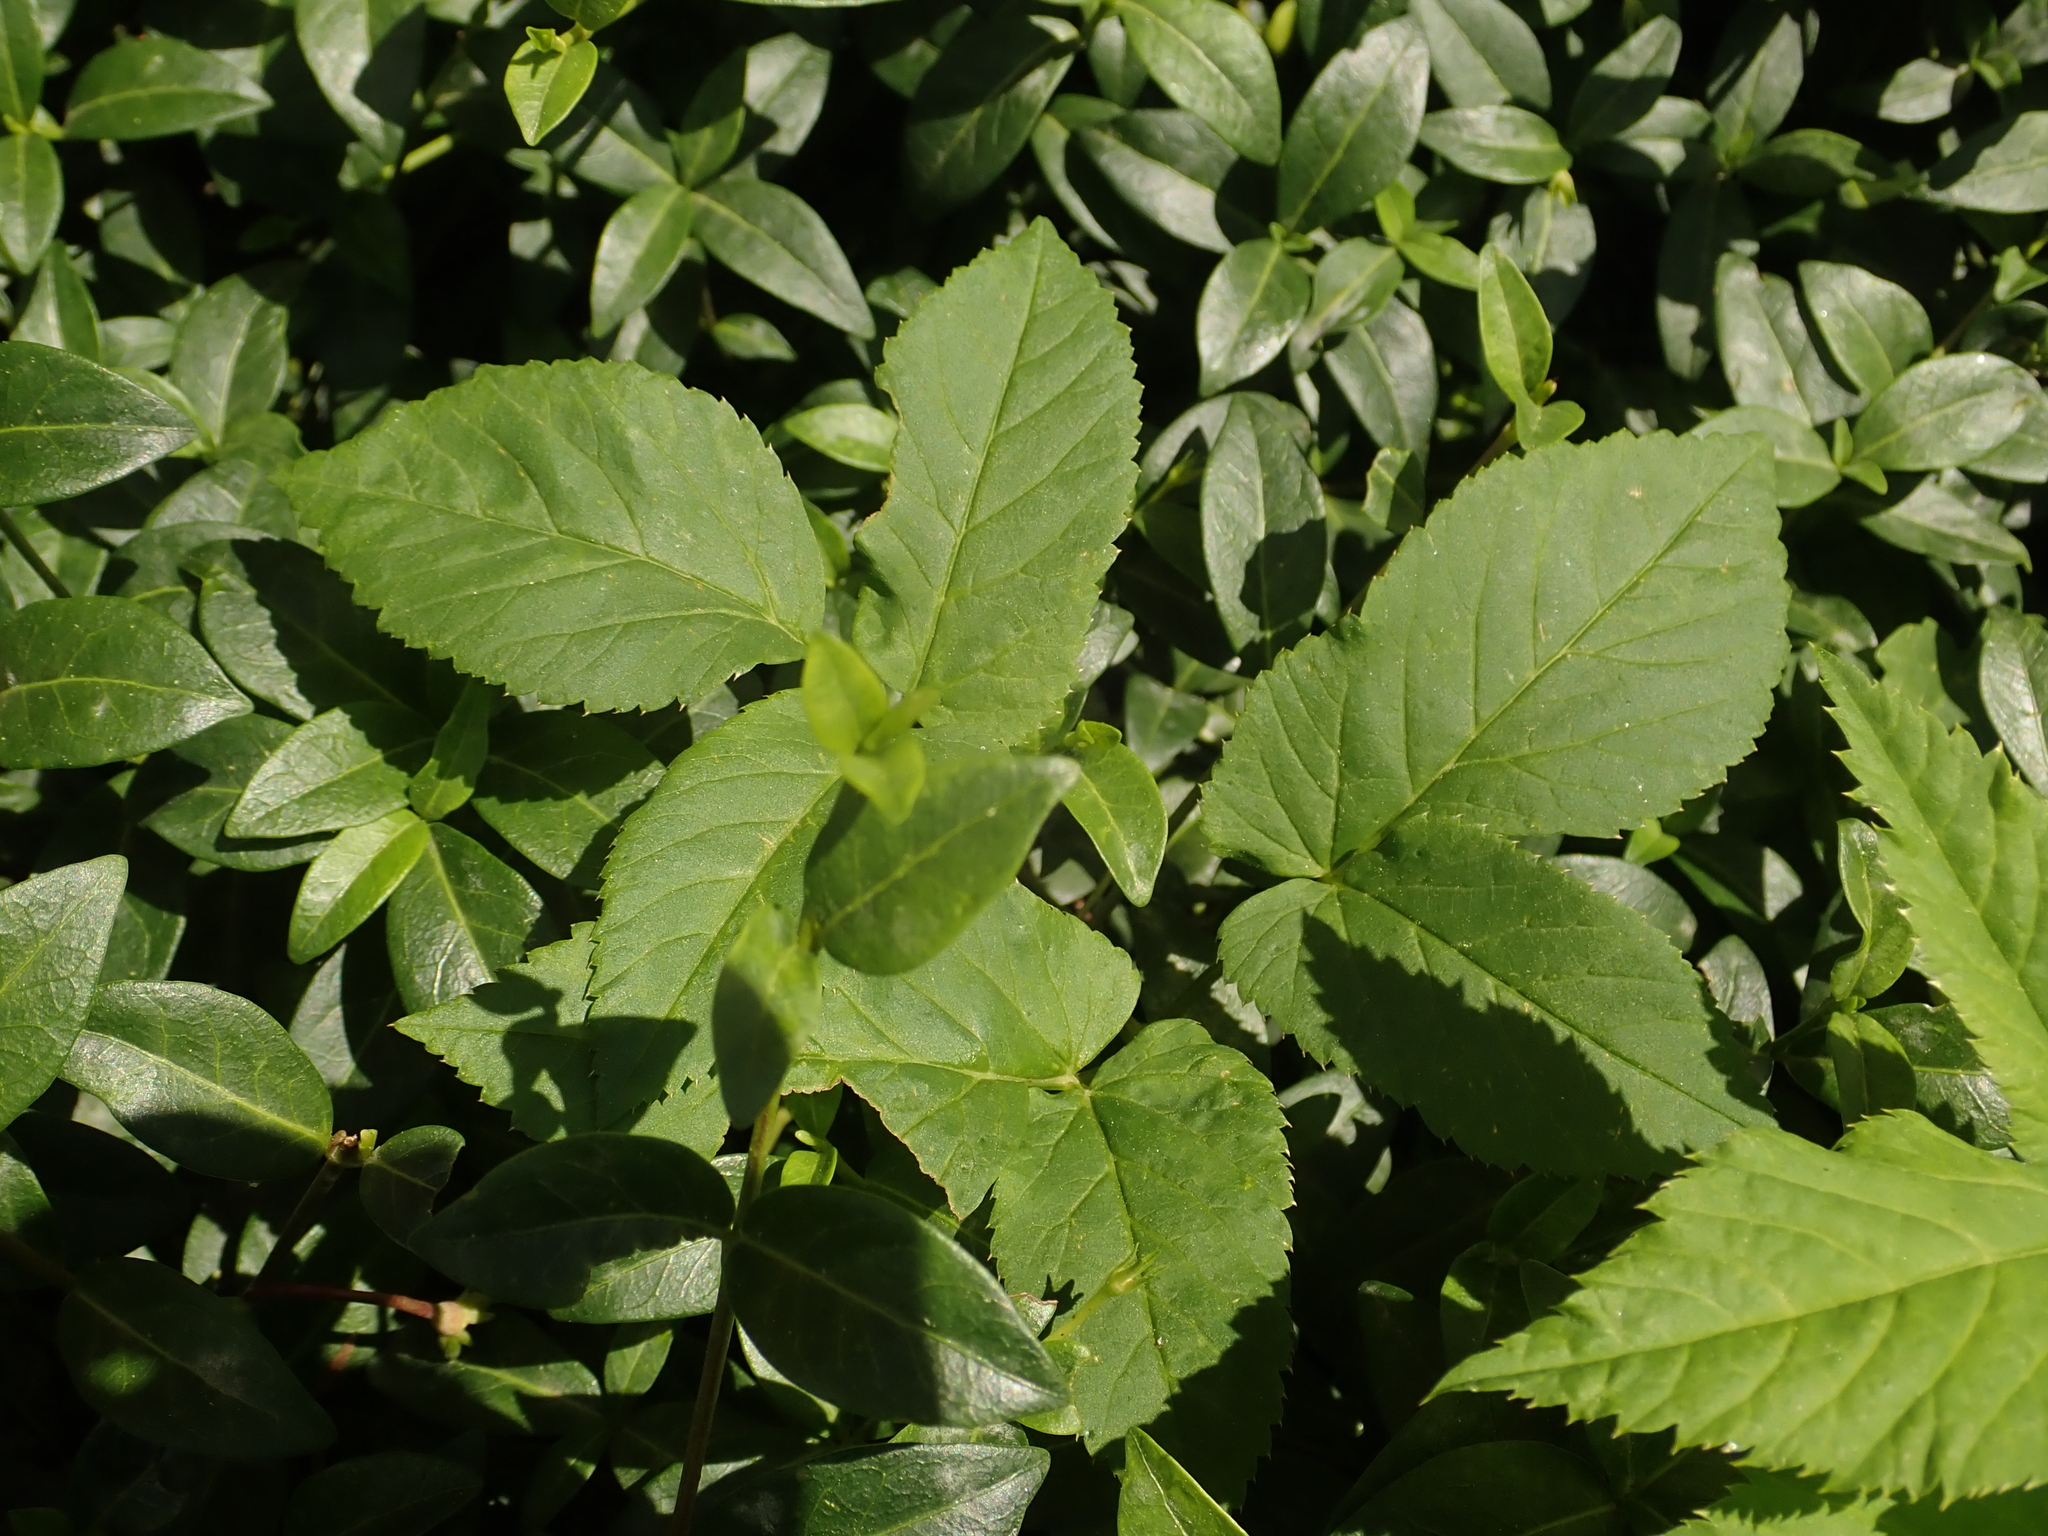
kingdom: Plantae
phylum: Tracheophyta
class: Magnoliopsida
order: Apiales
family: Apiaceae
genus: Aegopodium
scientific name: Aegopodium podagraria
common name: Ground-elder
